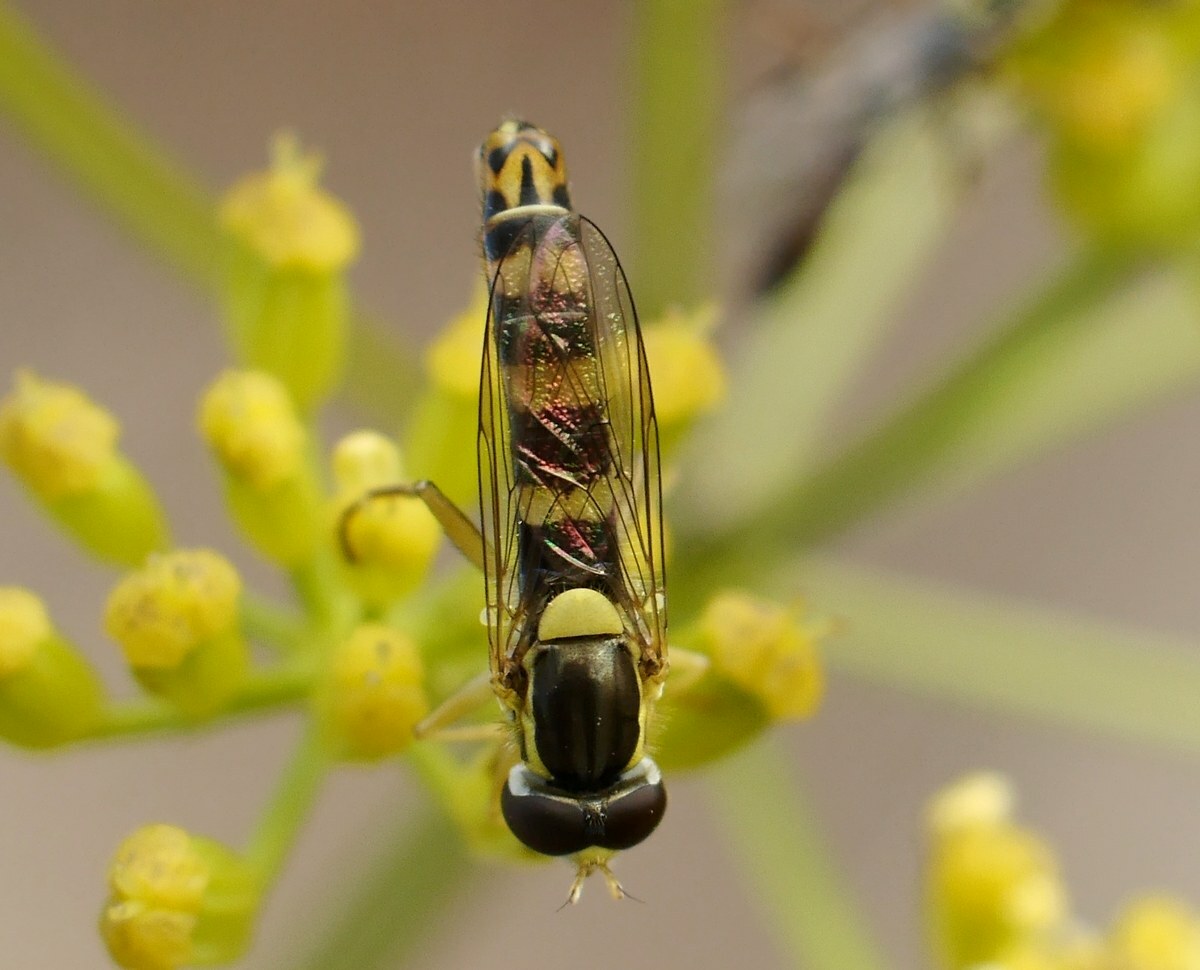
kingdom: Animalia
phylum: Arthropoda
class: Insecta
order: Diptera
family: Syrphidae
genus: Sphaerophoria
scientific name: Sphaerophoria scripta
